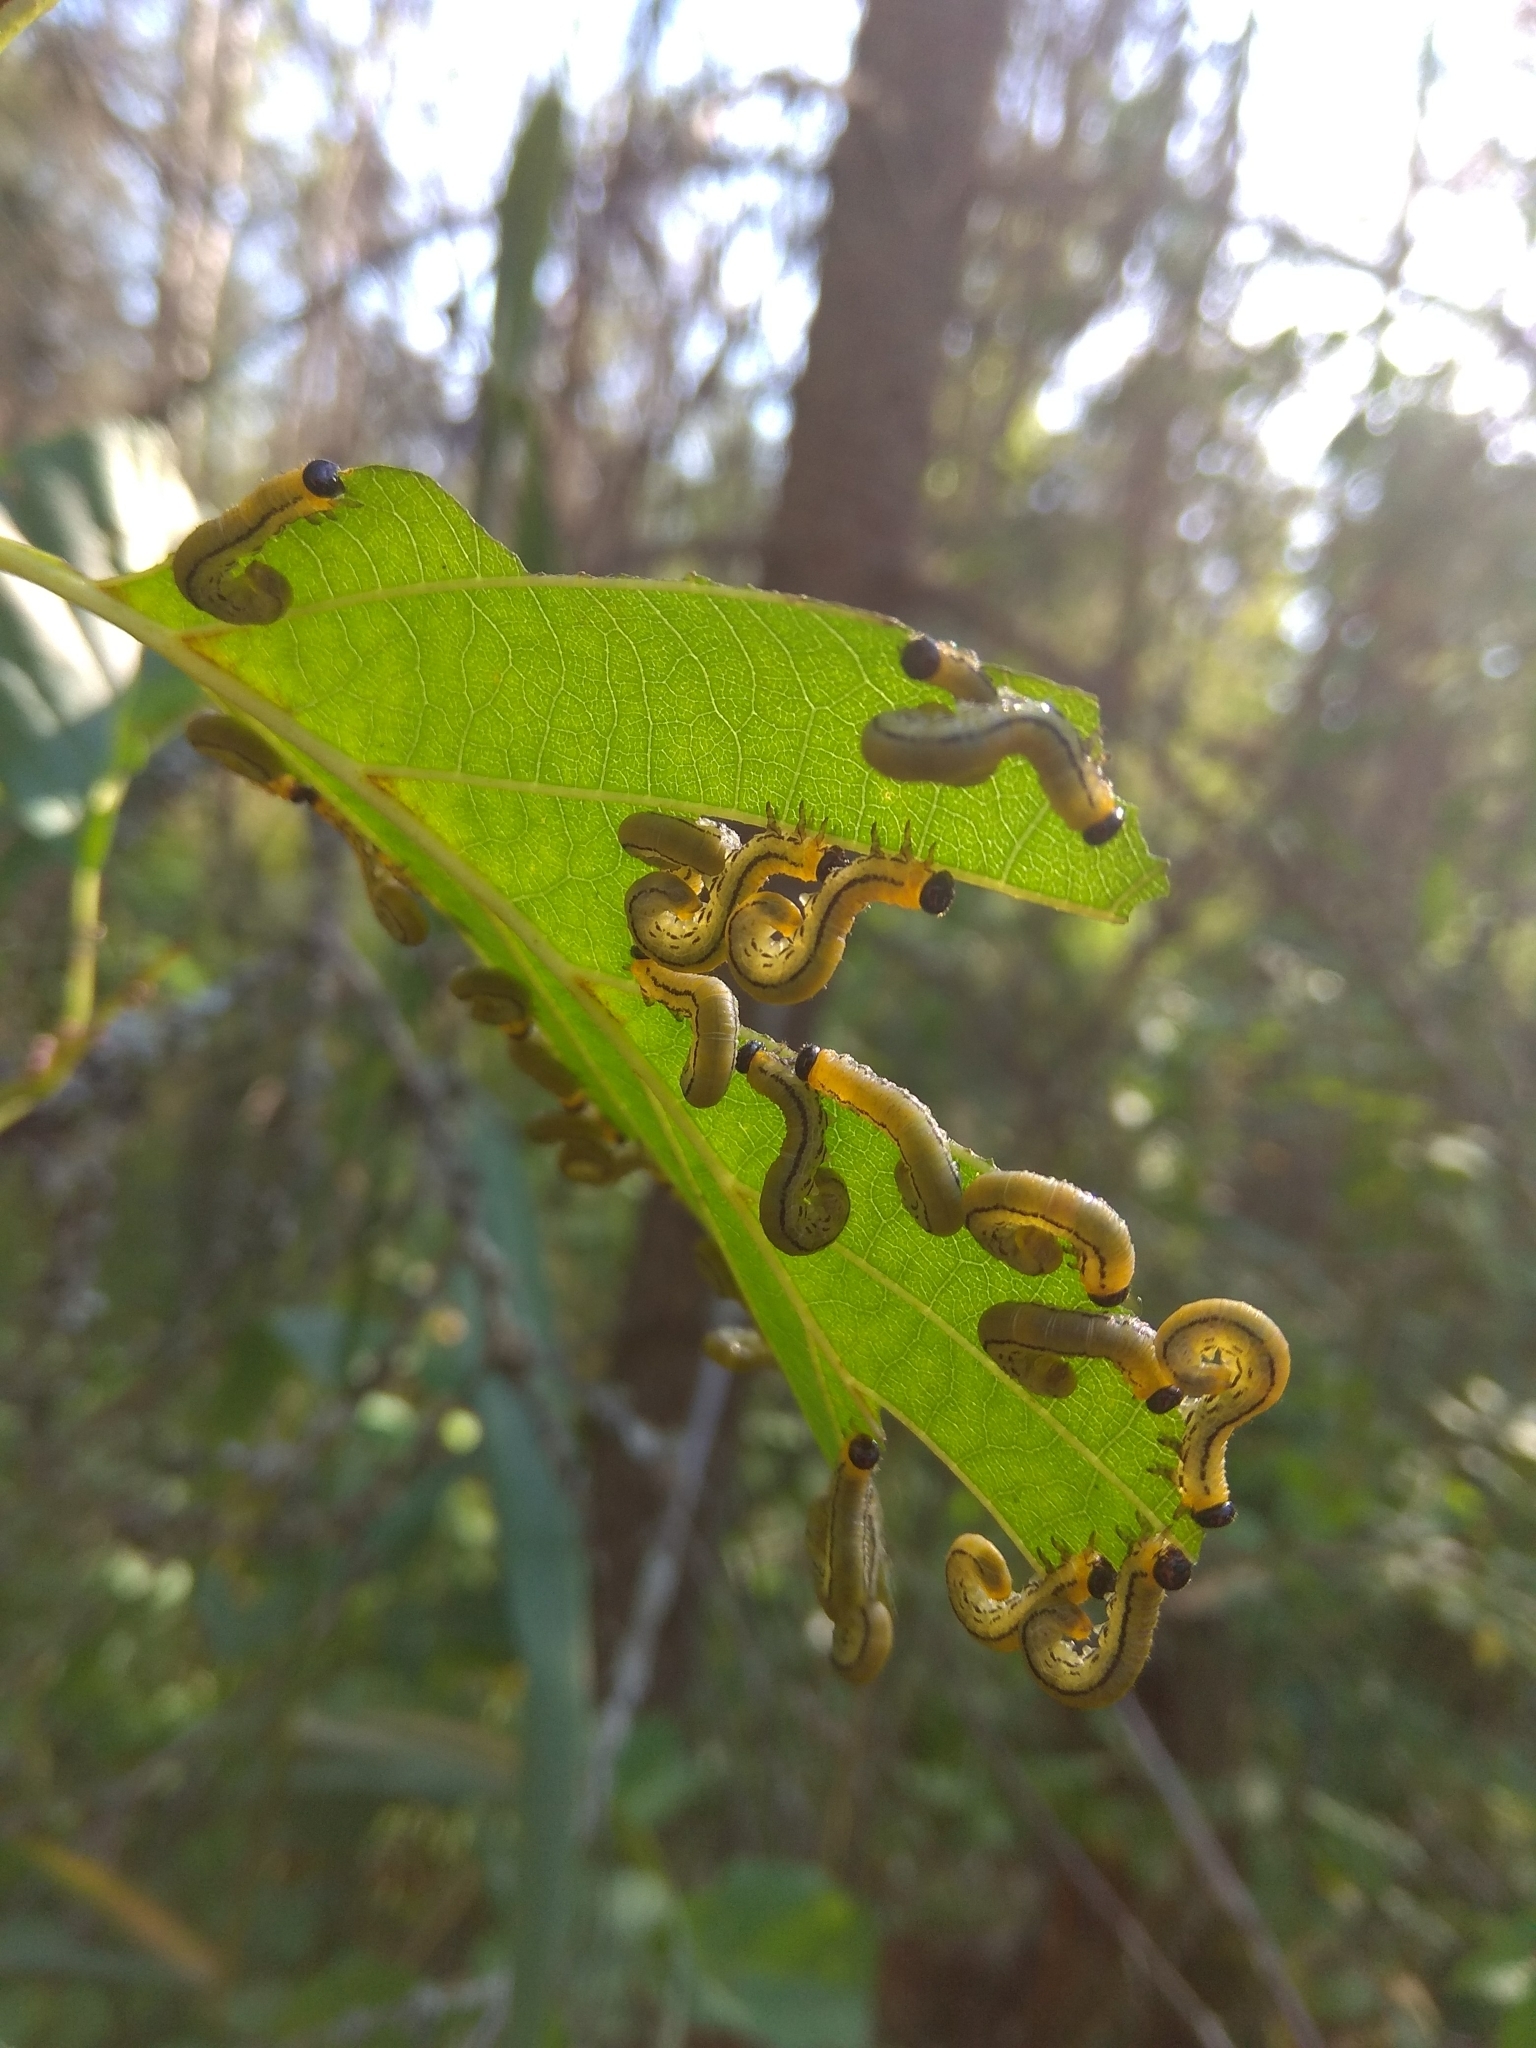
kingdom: Animalia
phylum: Arthropoda
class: Insecta
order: Hymenoptera
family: Tenthredinidae
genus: Hemichroa
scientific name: Hemichroa crocea
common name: Striped alder sawfly
